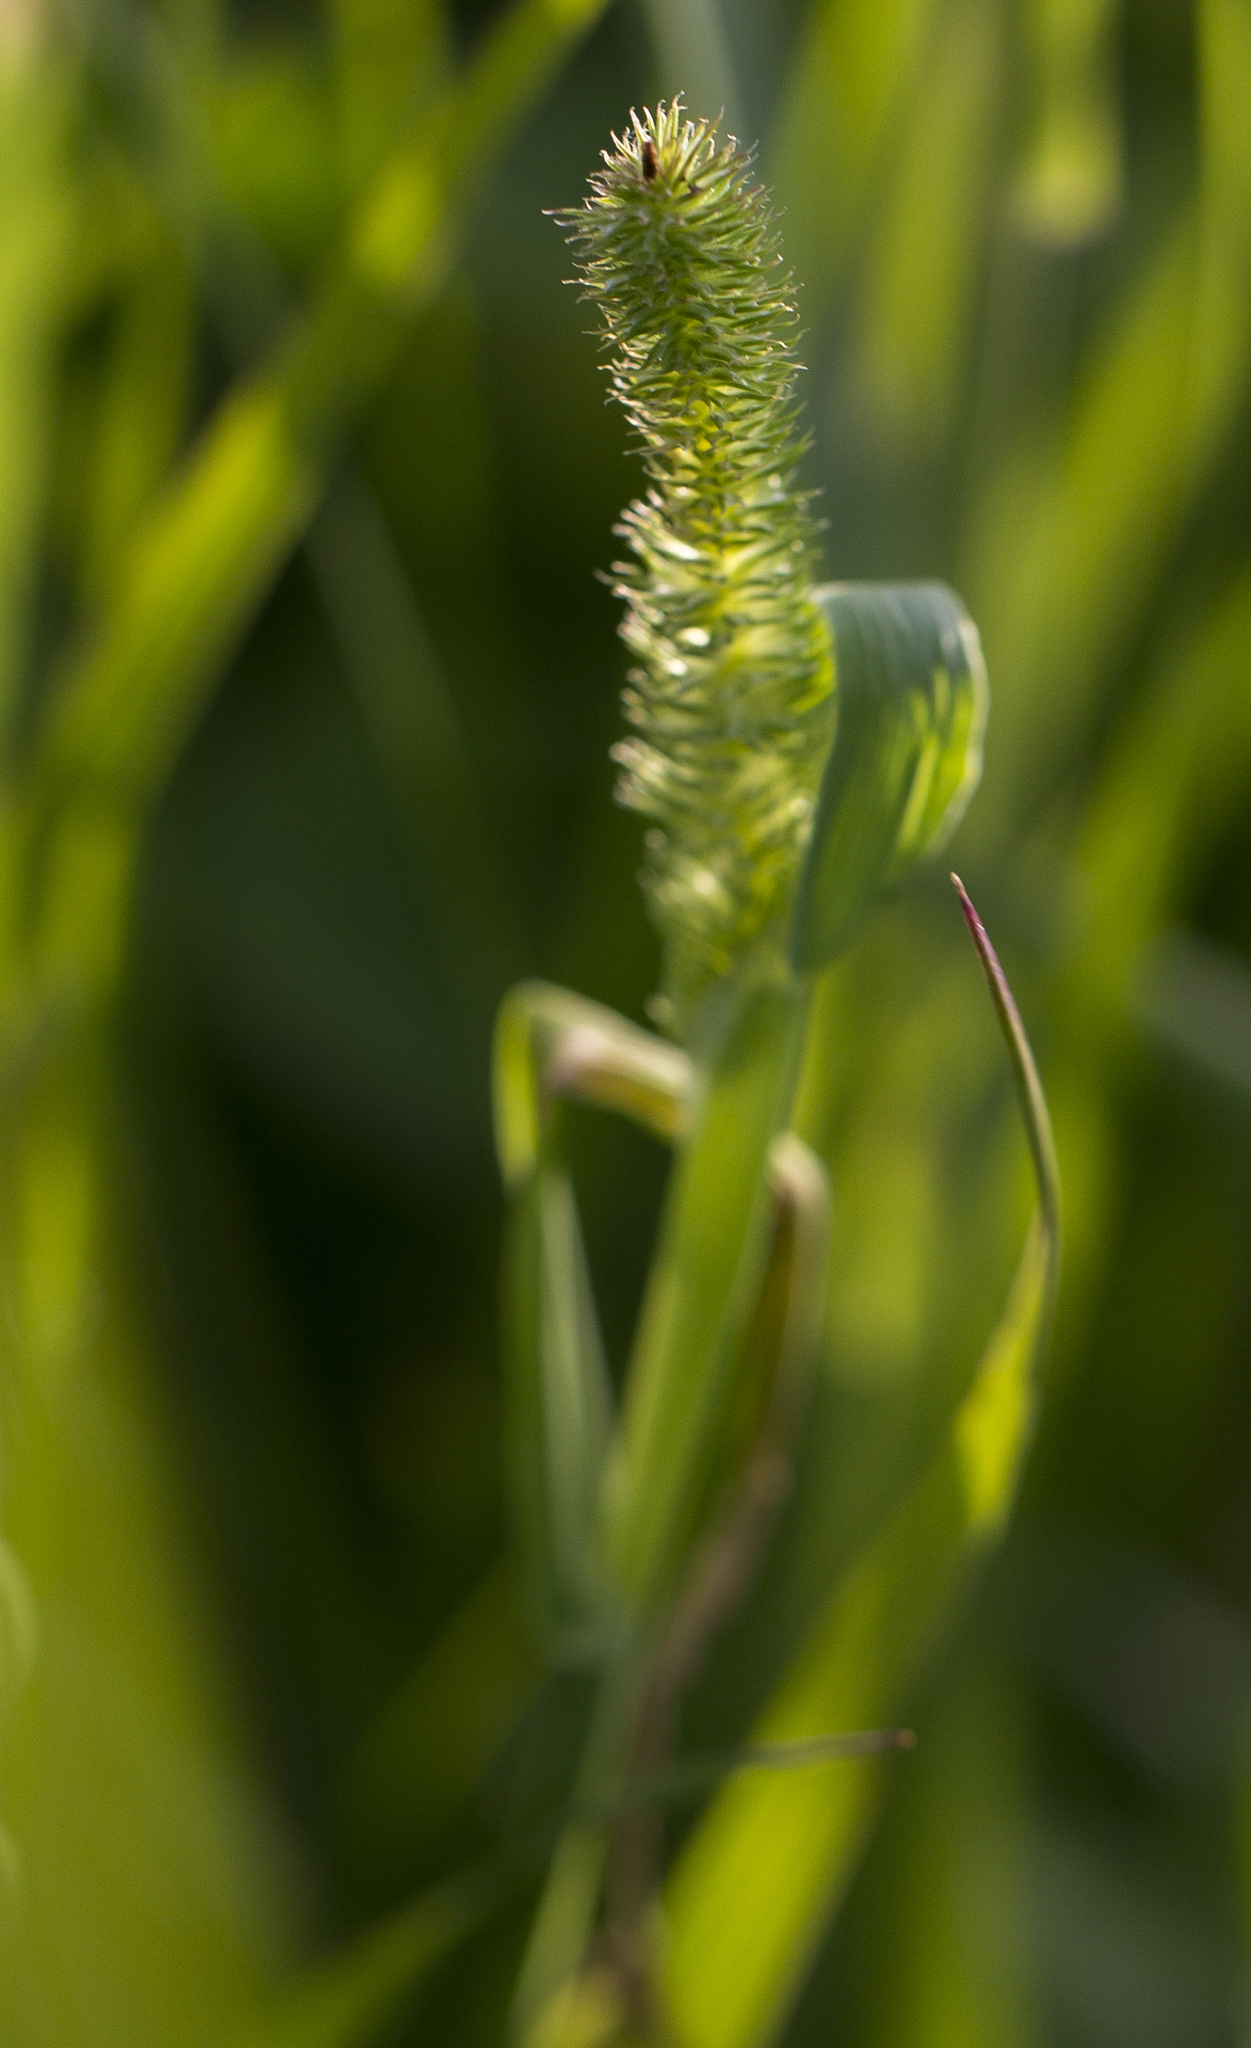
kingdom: Plantae
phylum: Tracheophyta
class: Liliopsida
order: Poales
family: Poaceae
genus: Phleum
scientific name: Phleum pratense
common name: Timothy grass
